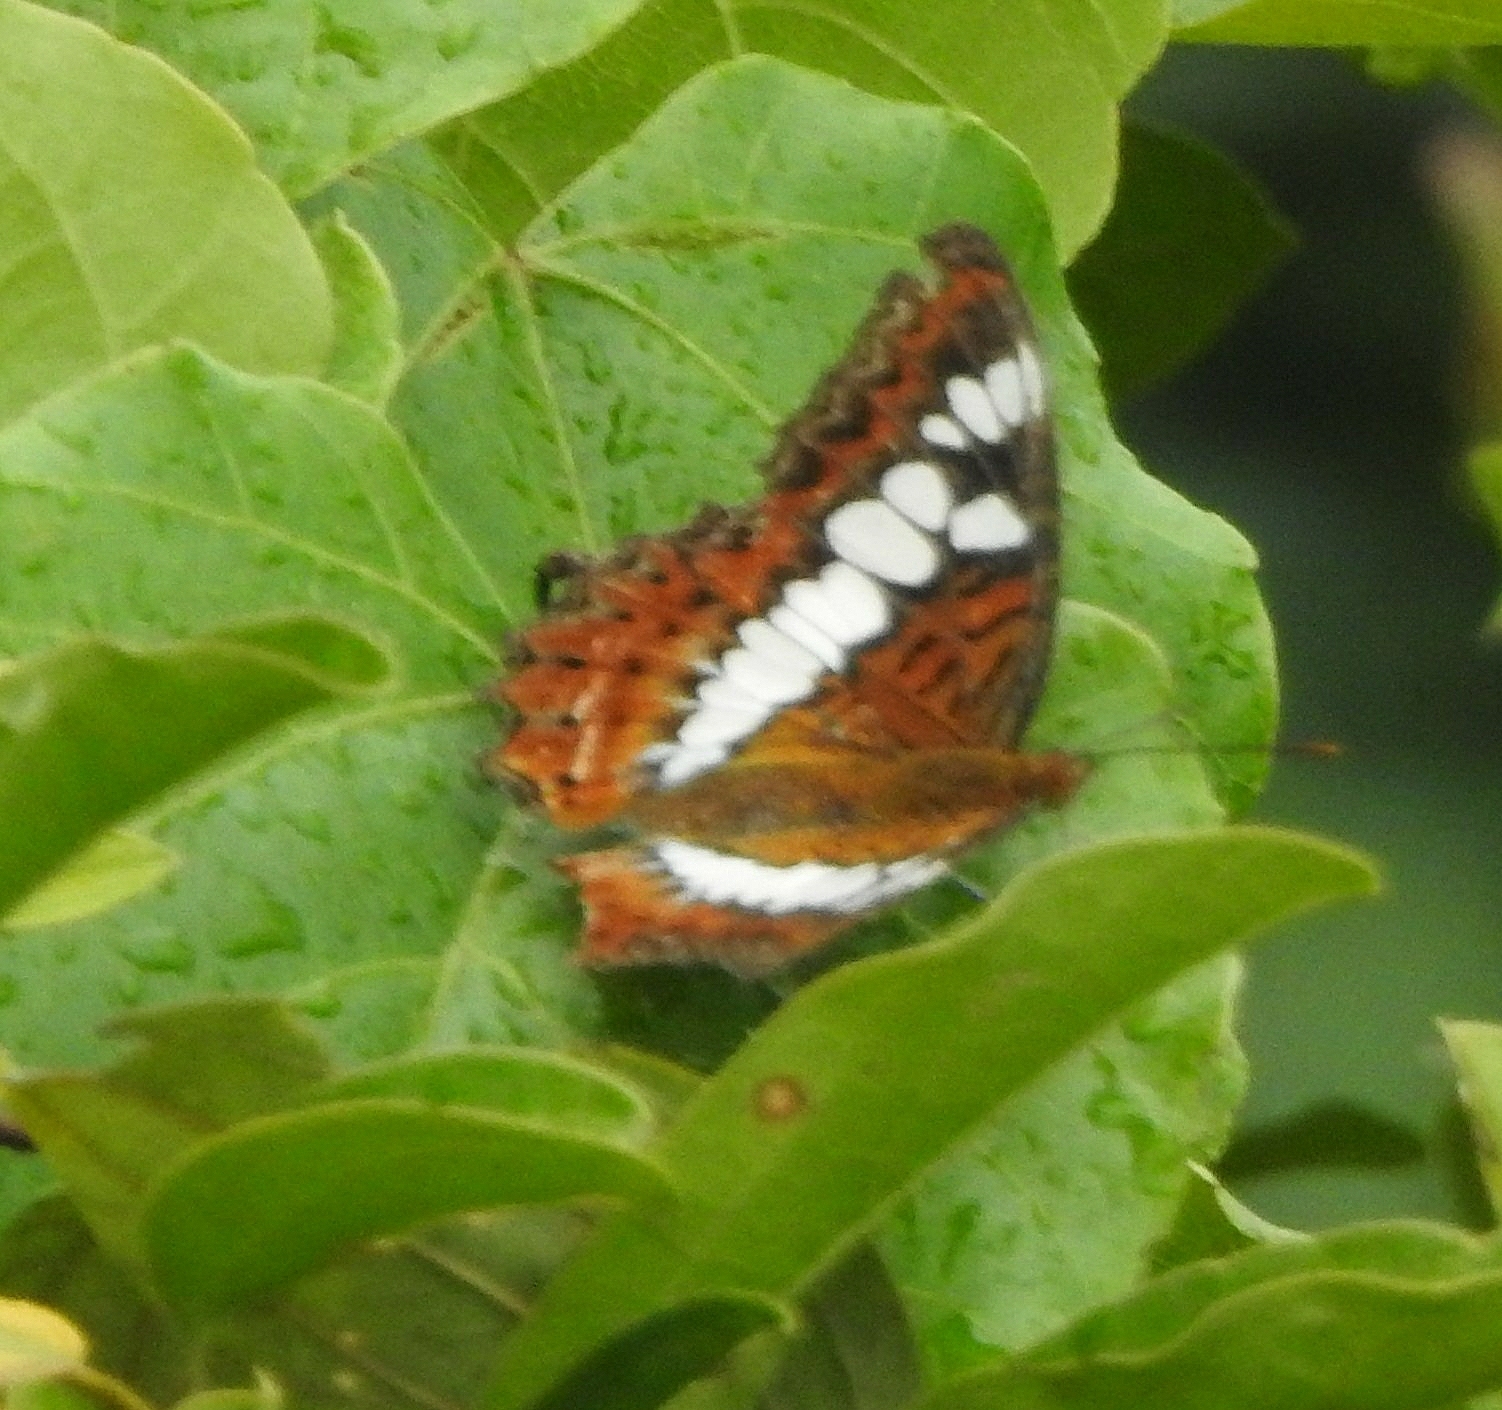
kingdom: Animalia
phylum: Arthropoda
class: Insecta
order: Lepidoptera
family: Nymphalidae
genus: Limenitis
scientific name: Limenitis Moduza procris
